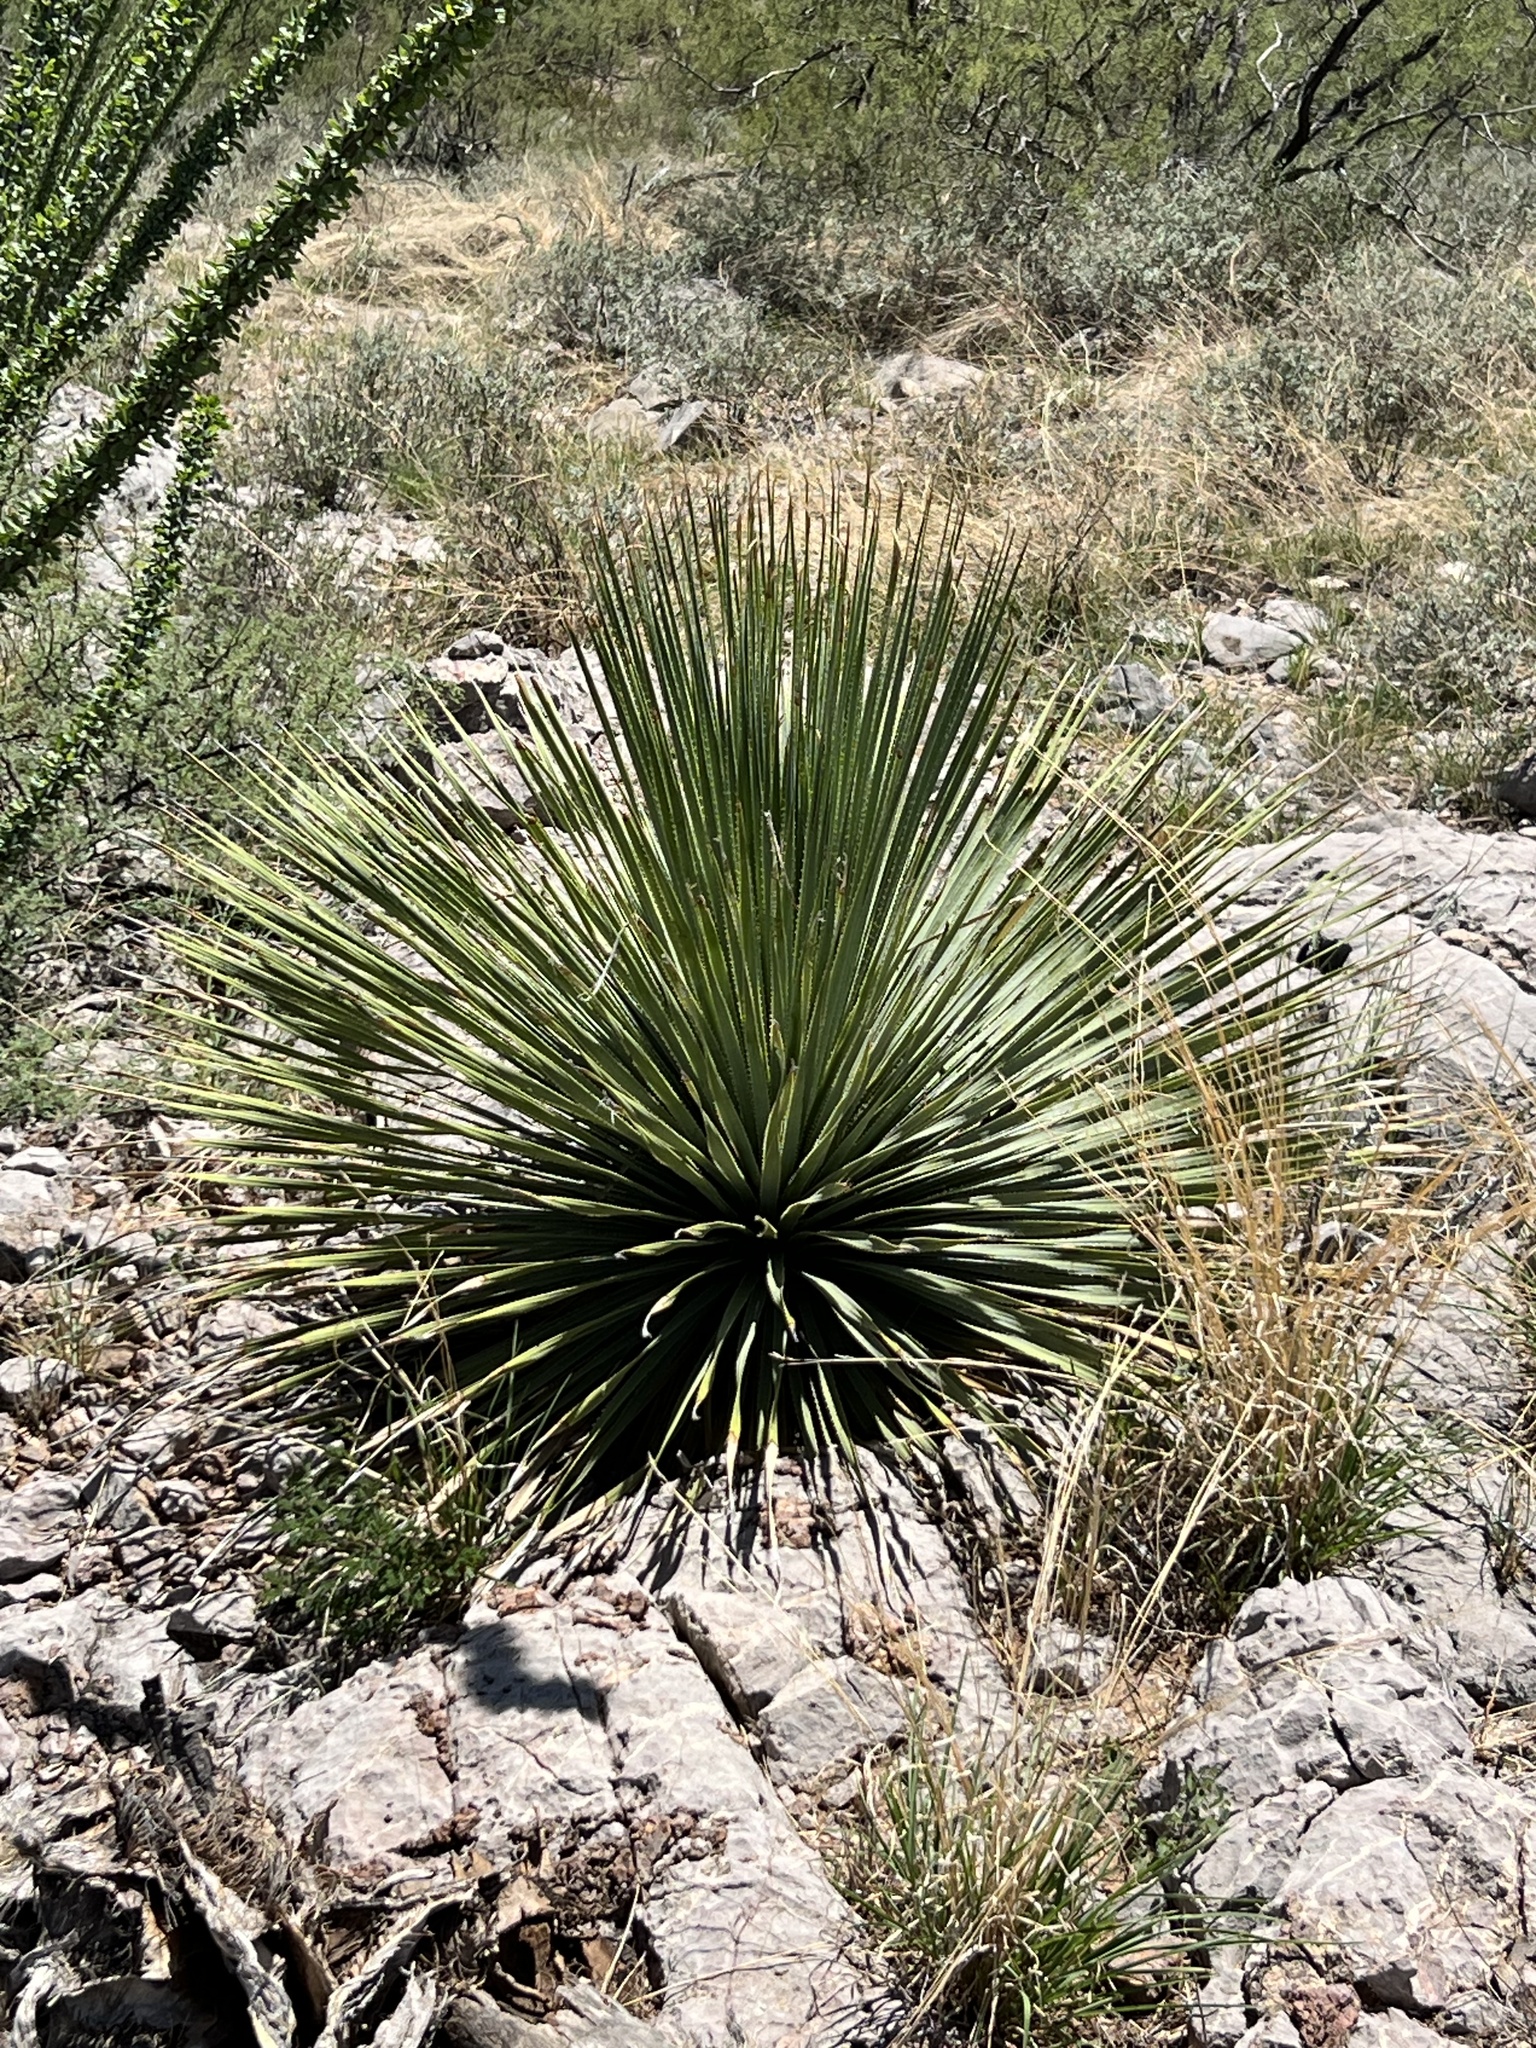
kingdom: Plantae
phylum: Tracheophyta
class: Liliopsida
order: Asparagales
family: Asparagaceae
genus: Dasylirion
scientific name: Dasylirion wheeleri
